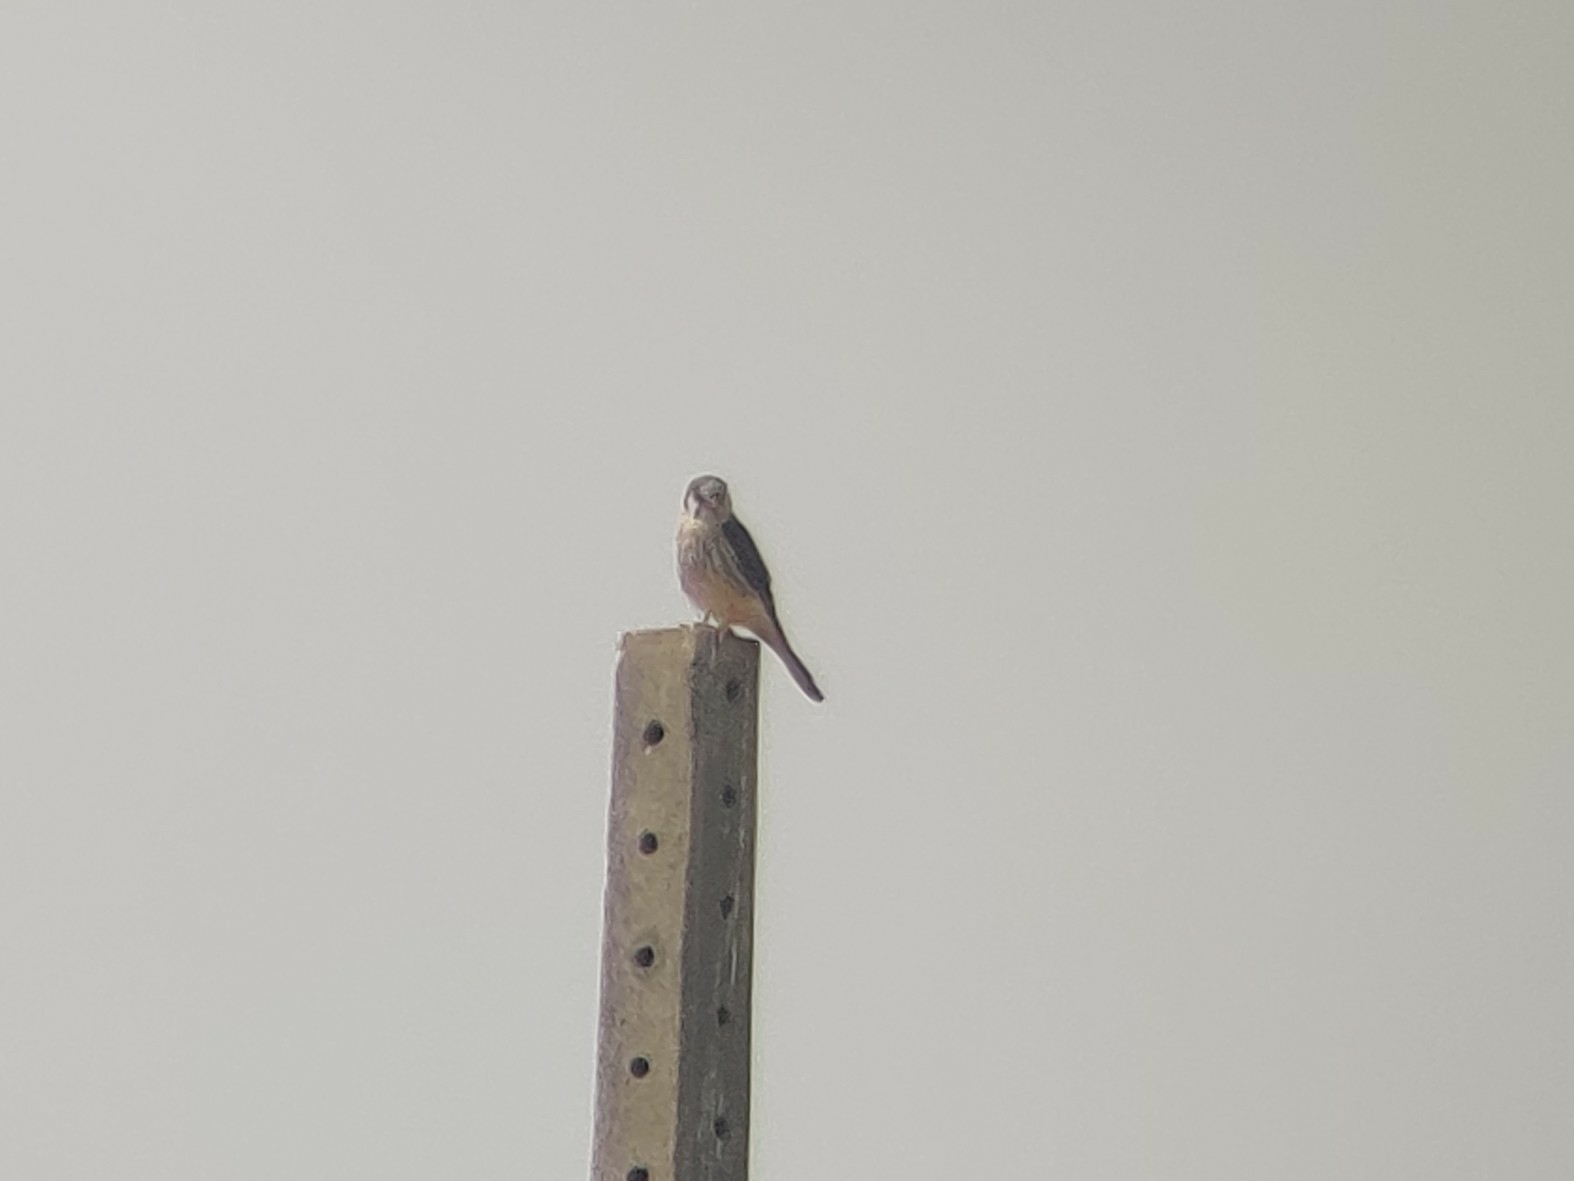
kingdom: Animalia
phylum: Chordata
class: Aves
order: Falconiformes
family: Falconidae
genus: Falco
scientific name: Falco sparverius
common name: American kestrel
